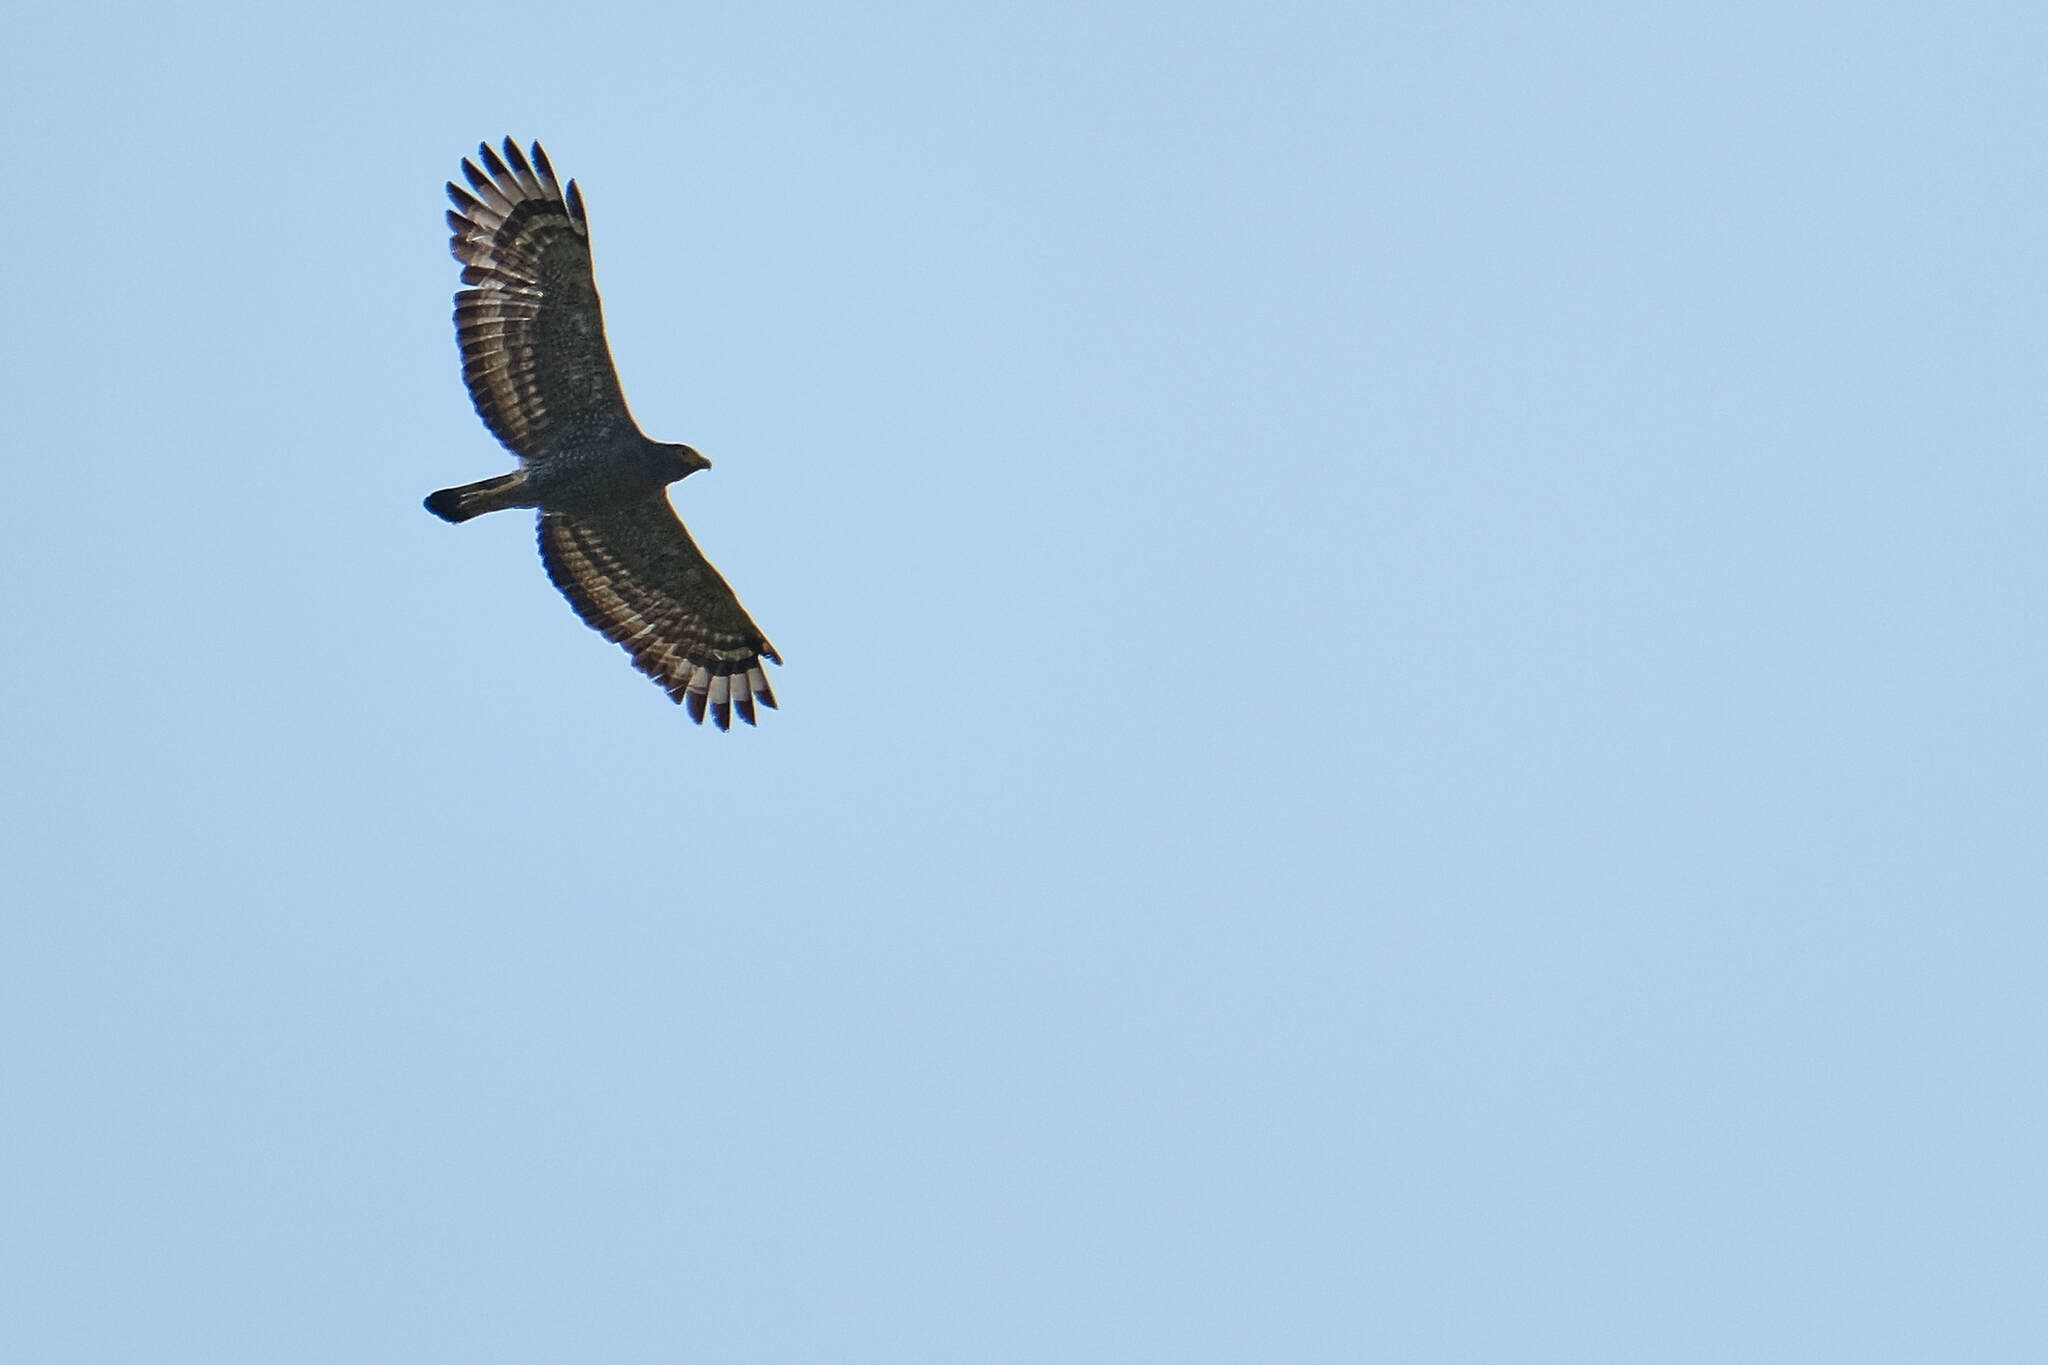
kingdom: Animalia
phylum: Chordata
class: Aves
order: Accipitriformes
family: Accipitridae
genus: Spilornis
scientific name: Spilornis cheela
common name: Crested serpent eagle
